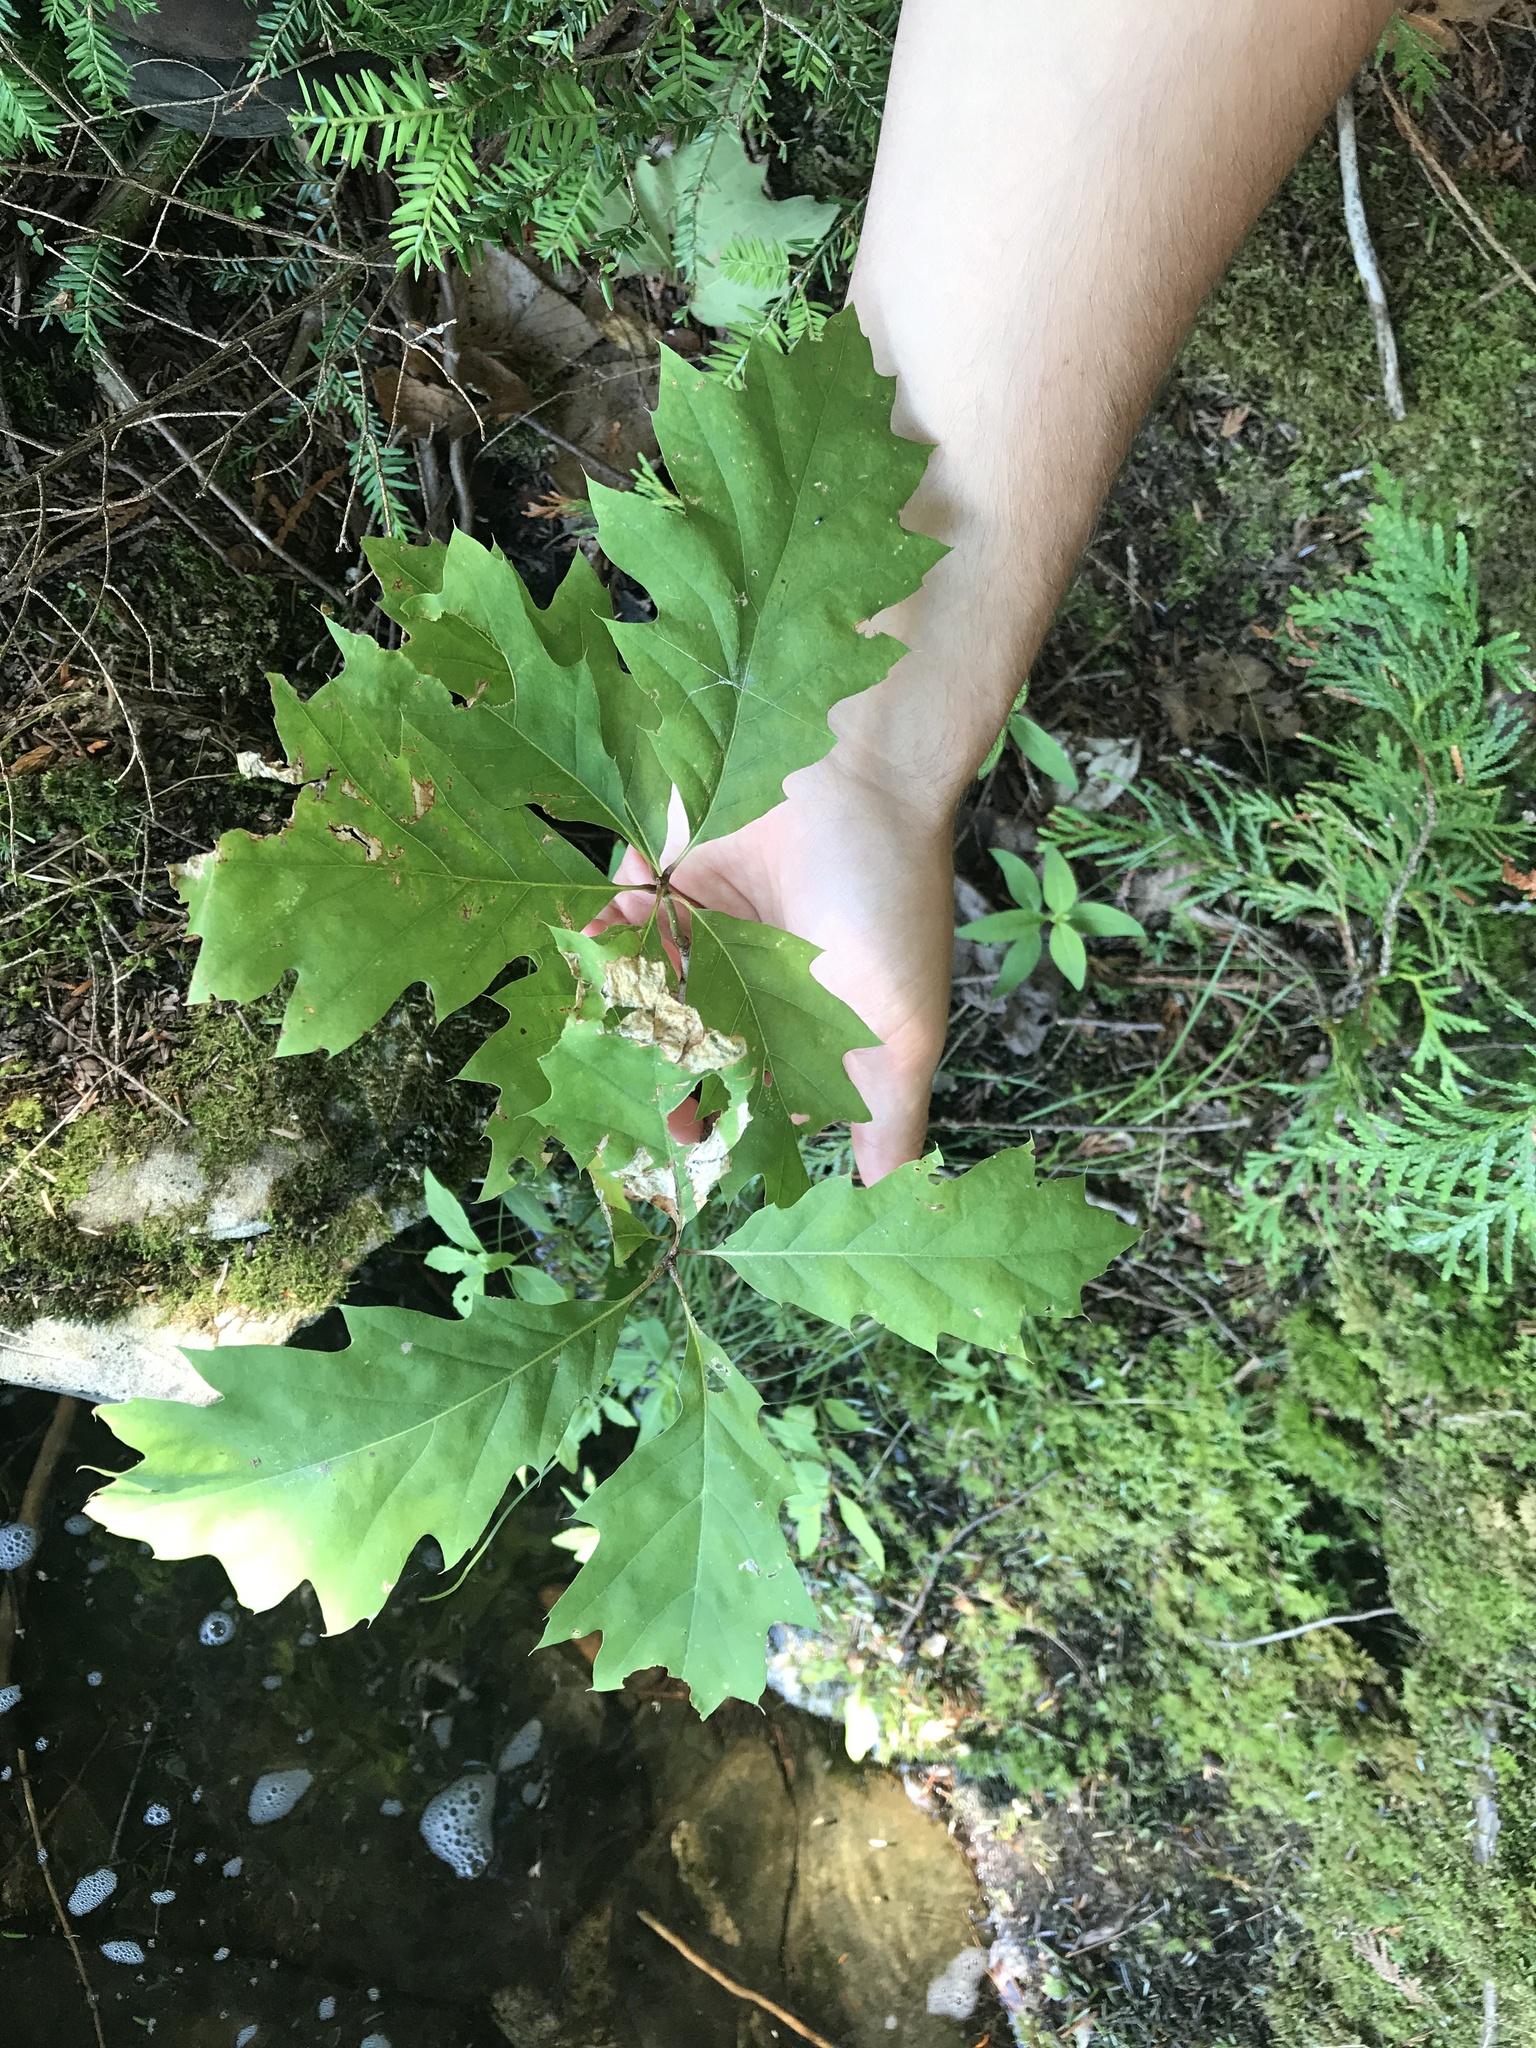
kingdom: Plantae
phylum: Tracheophyta
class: Magnoliopsida
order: Fagales
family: Fagaceae
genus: Quercus
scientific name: Quercus rubra
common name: Red oak
